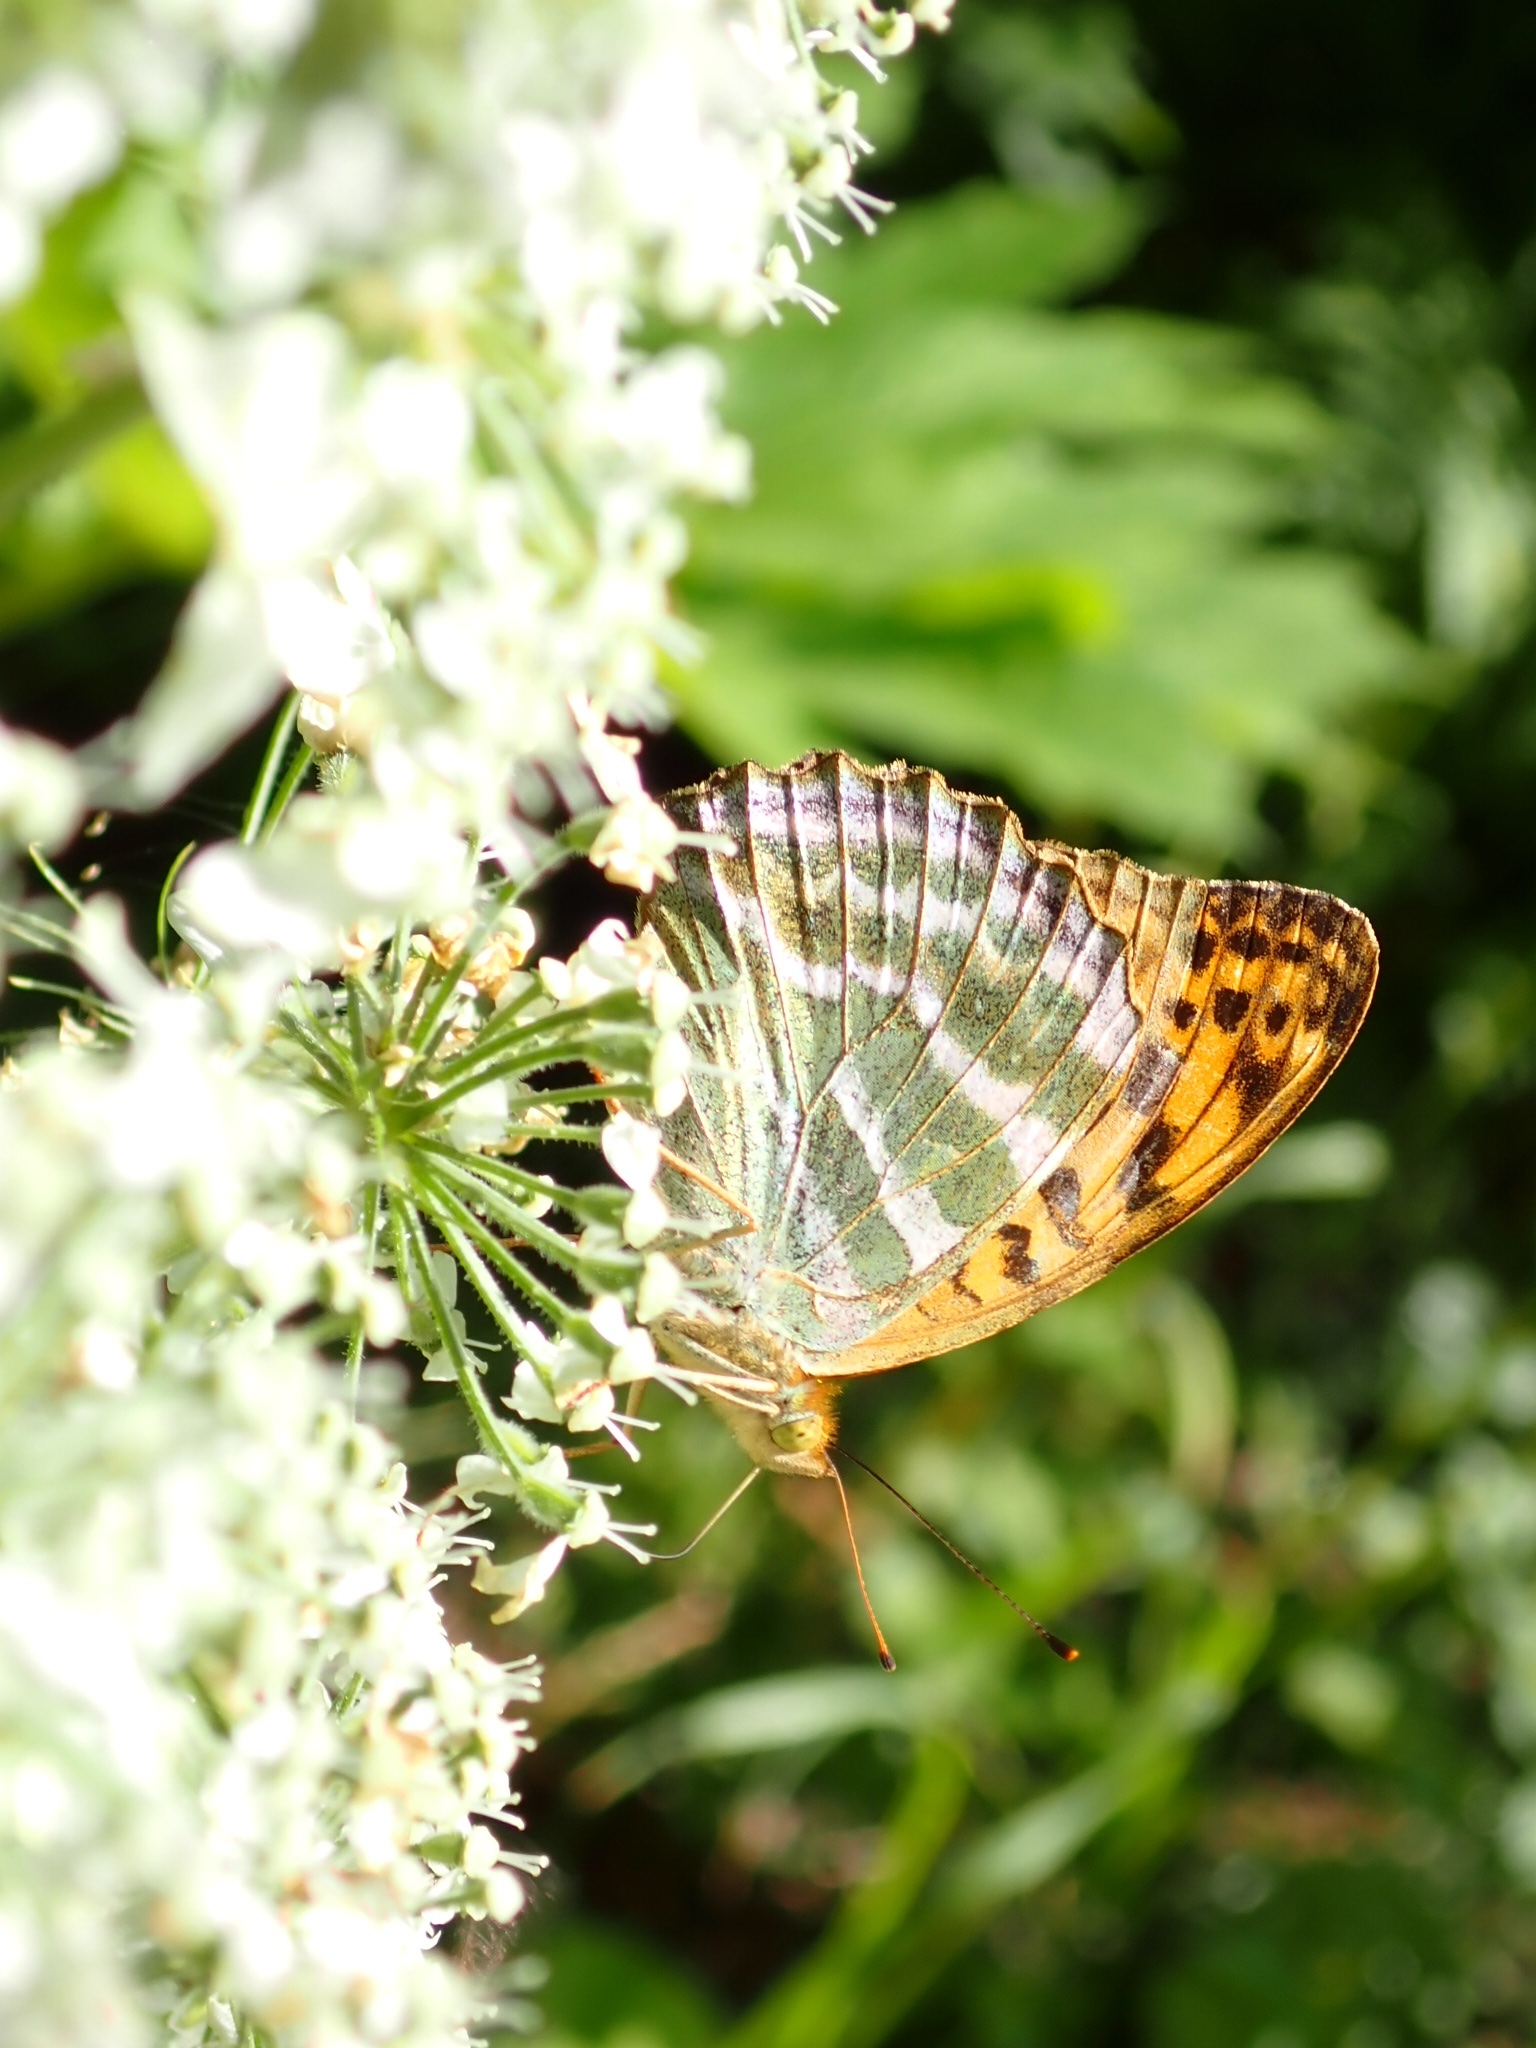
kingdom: Animalia
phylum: Arthropoda
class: Insecta
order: Lepidoptera
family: Nymphalidae
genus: Argynnis
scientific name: Argynnis paphia
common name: Silver-washed fritillary
